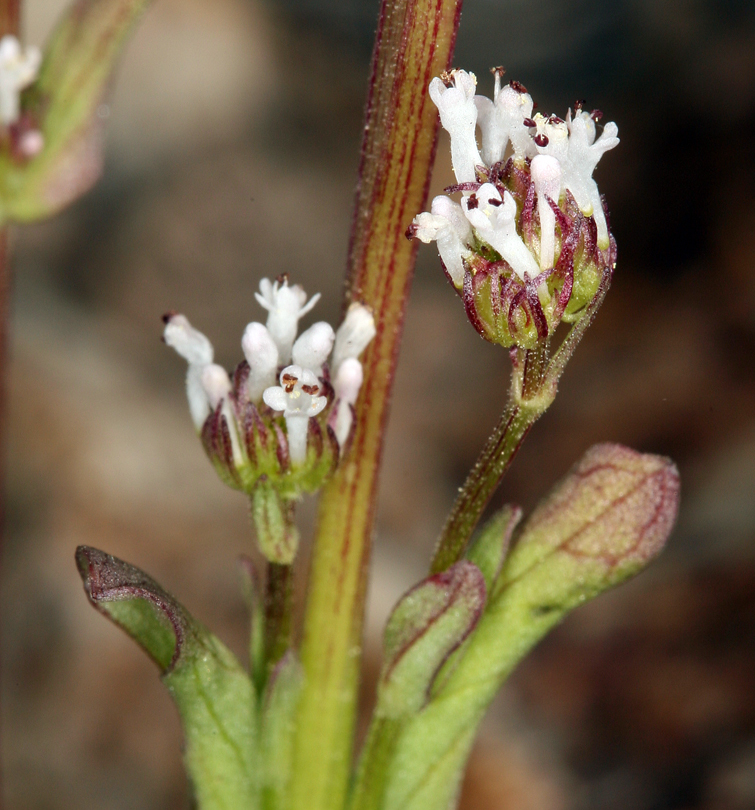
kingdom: Plantae
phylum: Tracheophyta
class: Magnoliopsida
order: Dipsacales
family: Caprifoliaceae
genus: Plectritis
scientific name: Plectritis macroptera
